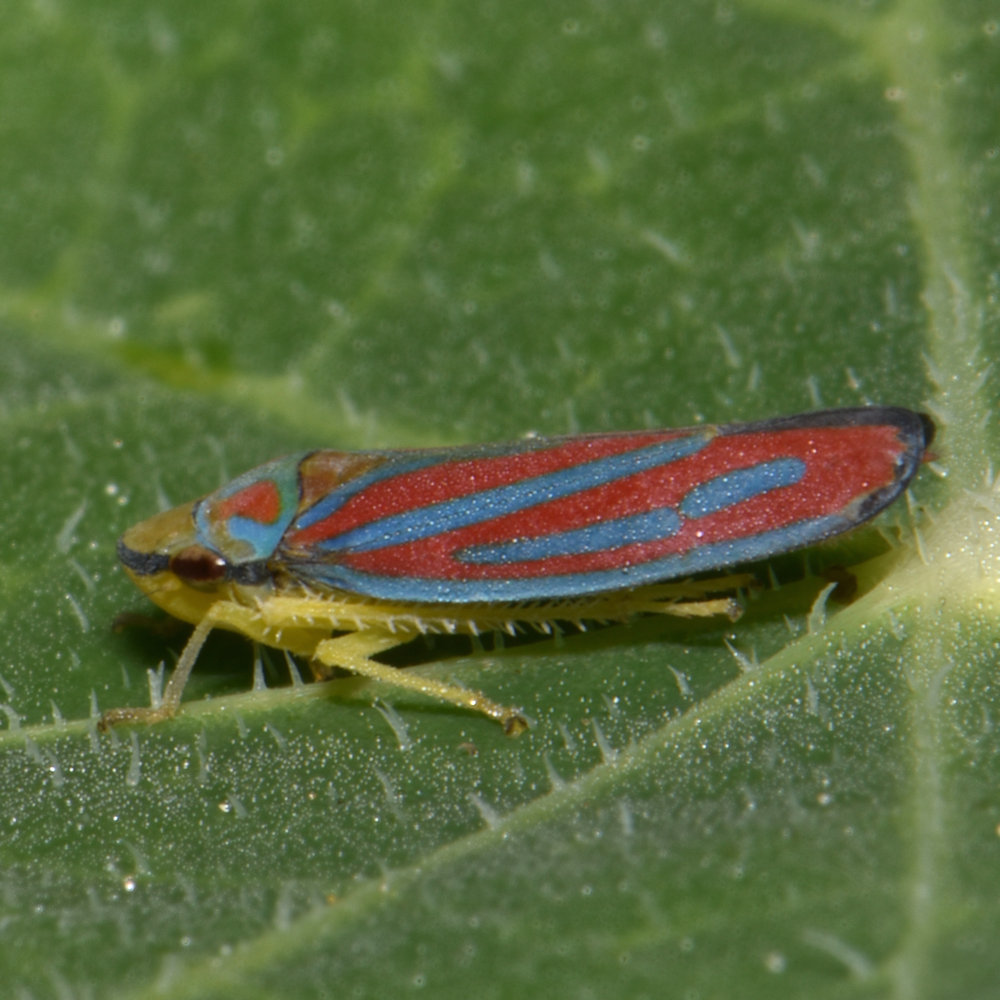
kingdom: Animalia
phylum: Arthropoda
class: Insecta
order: Hemiptera
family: Cicadellidae
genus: Graphocephala
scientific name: Graphocephala coccinea
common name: Candy-striped leafhopper
